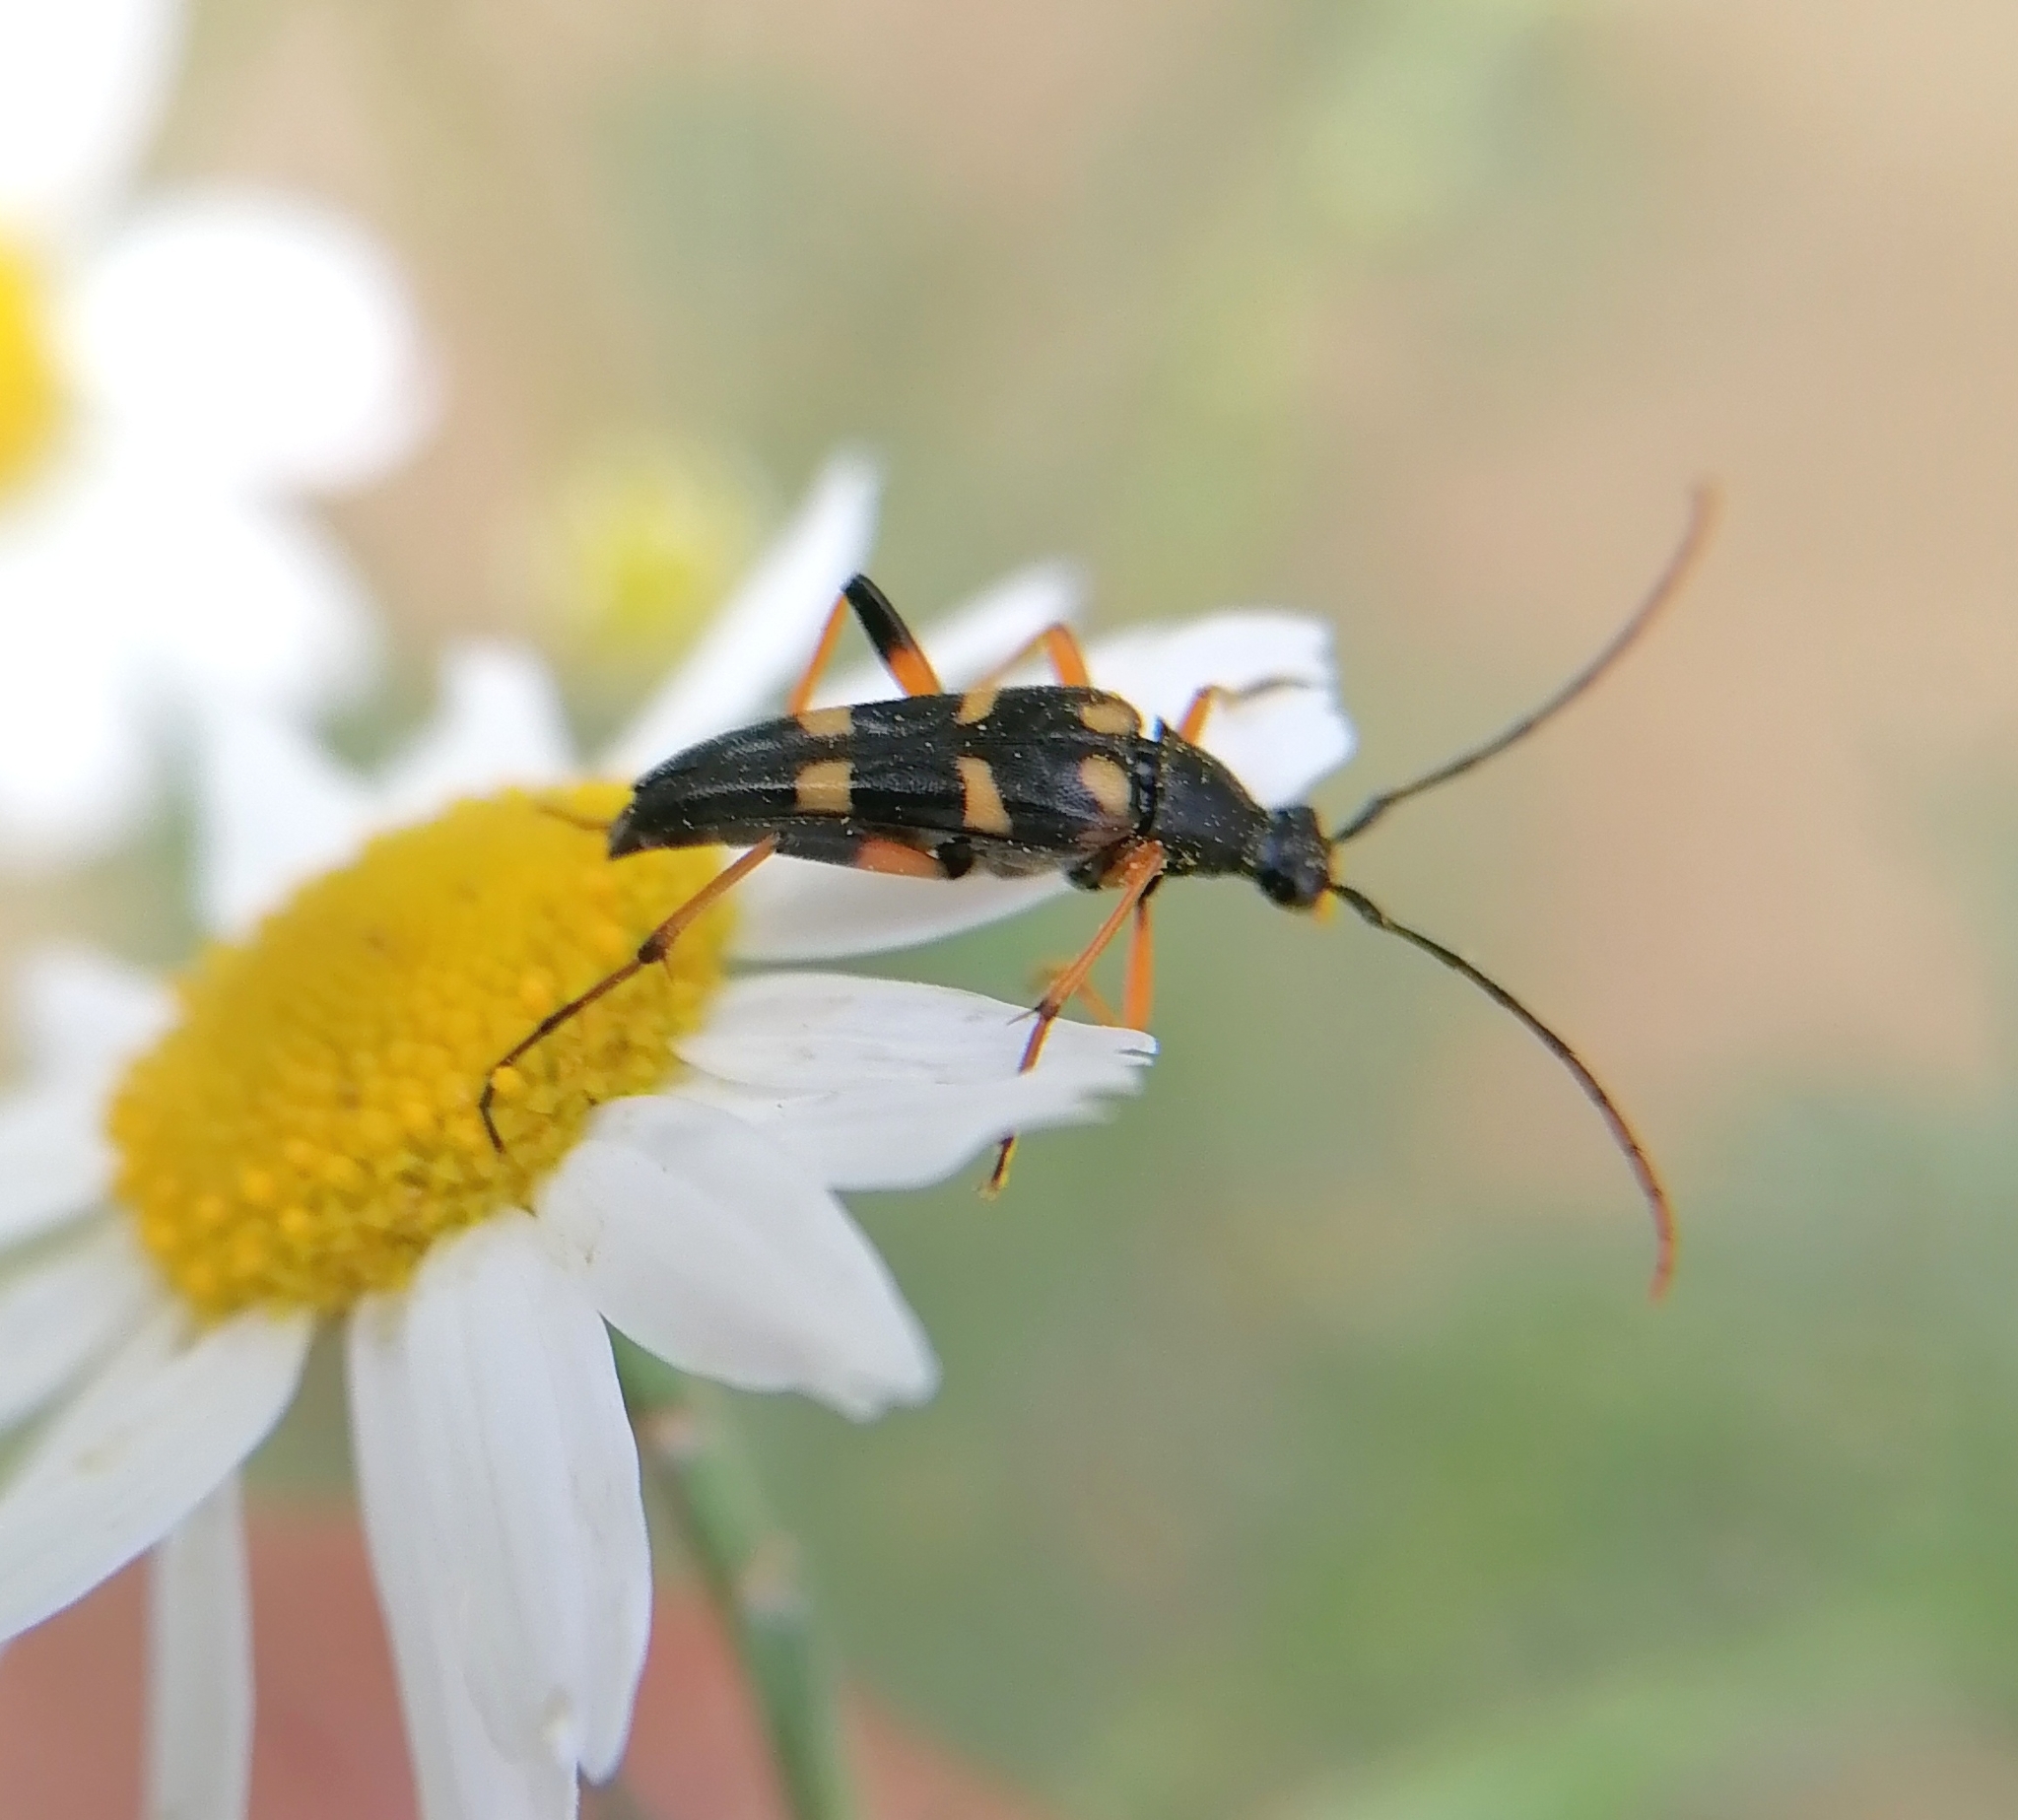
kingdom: Animalia
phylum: Arthropoda
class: Insecta
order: Coleoptera
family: Cerambycidae
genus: Strangalia
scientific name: Strangalia attenuata
